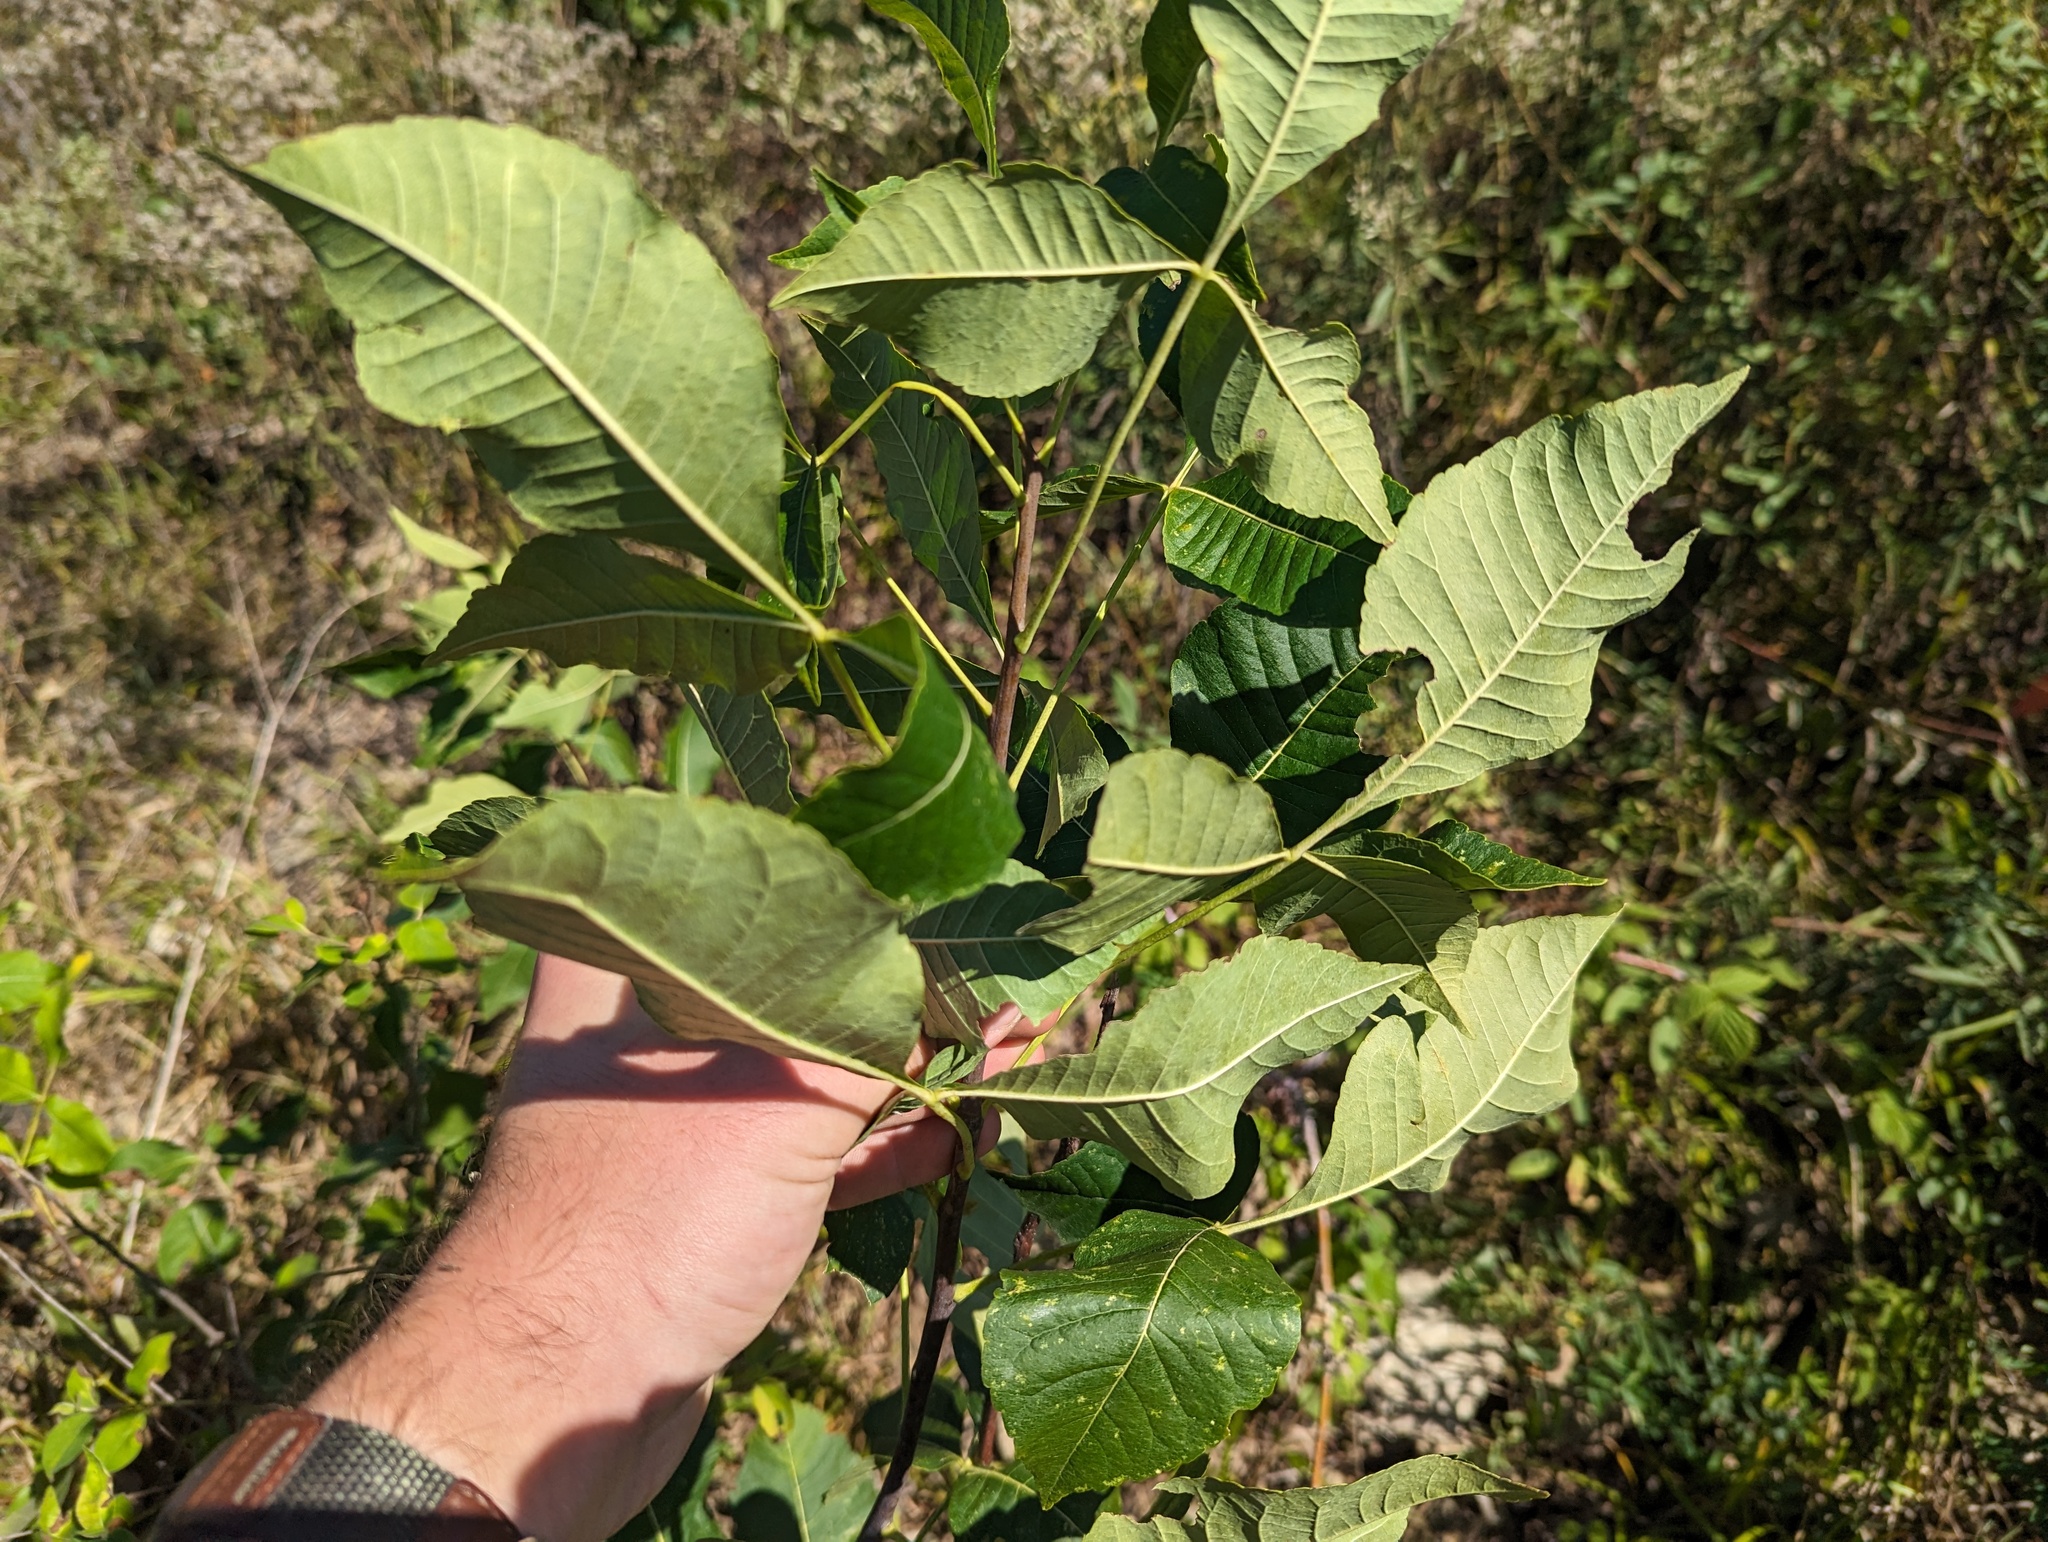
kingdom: Plantae
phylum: Tracheophyta
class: Magnoliopsida
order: Sapindales
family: Rutaceae
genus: Ptelea
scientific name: Ptelea trifoliata
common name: Common hop-tree
